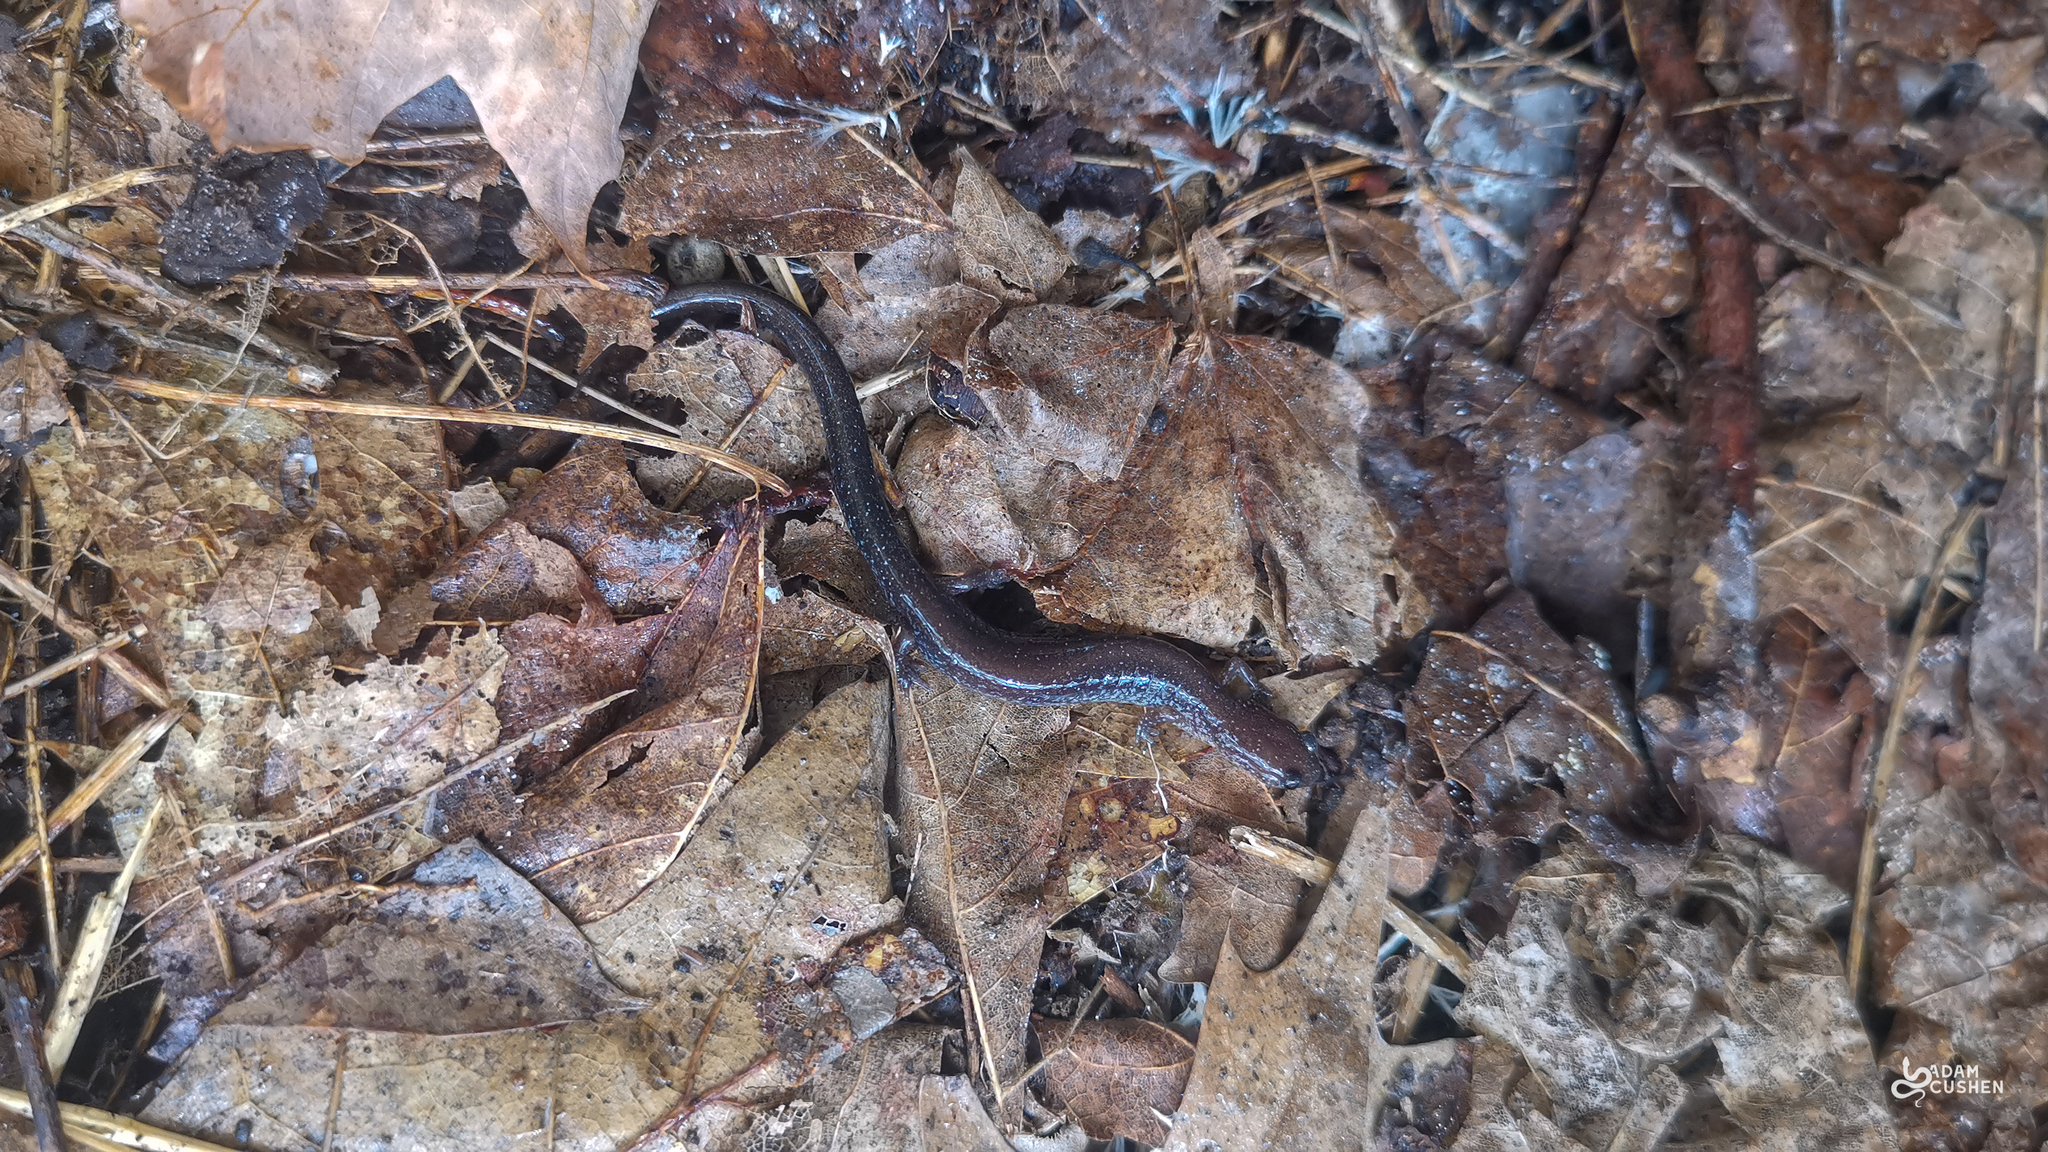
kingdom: Animalia
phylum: Chordata
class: Amphibia
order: Caudata
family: Plethodontidae
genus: Plethodon
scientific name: Plethodon cinereus
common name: Redback salamander
